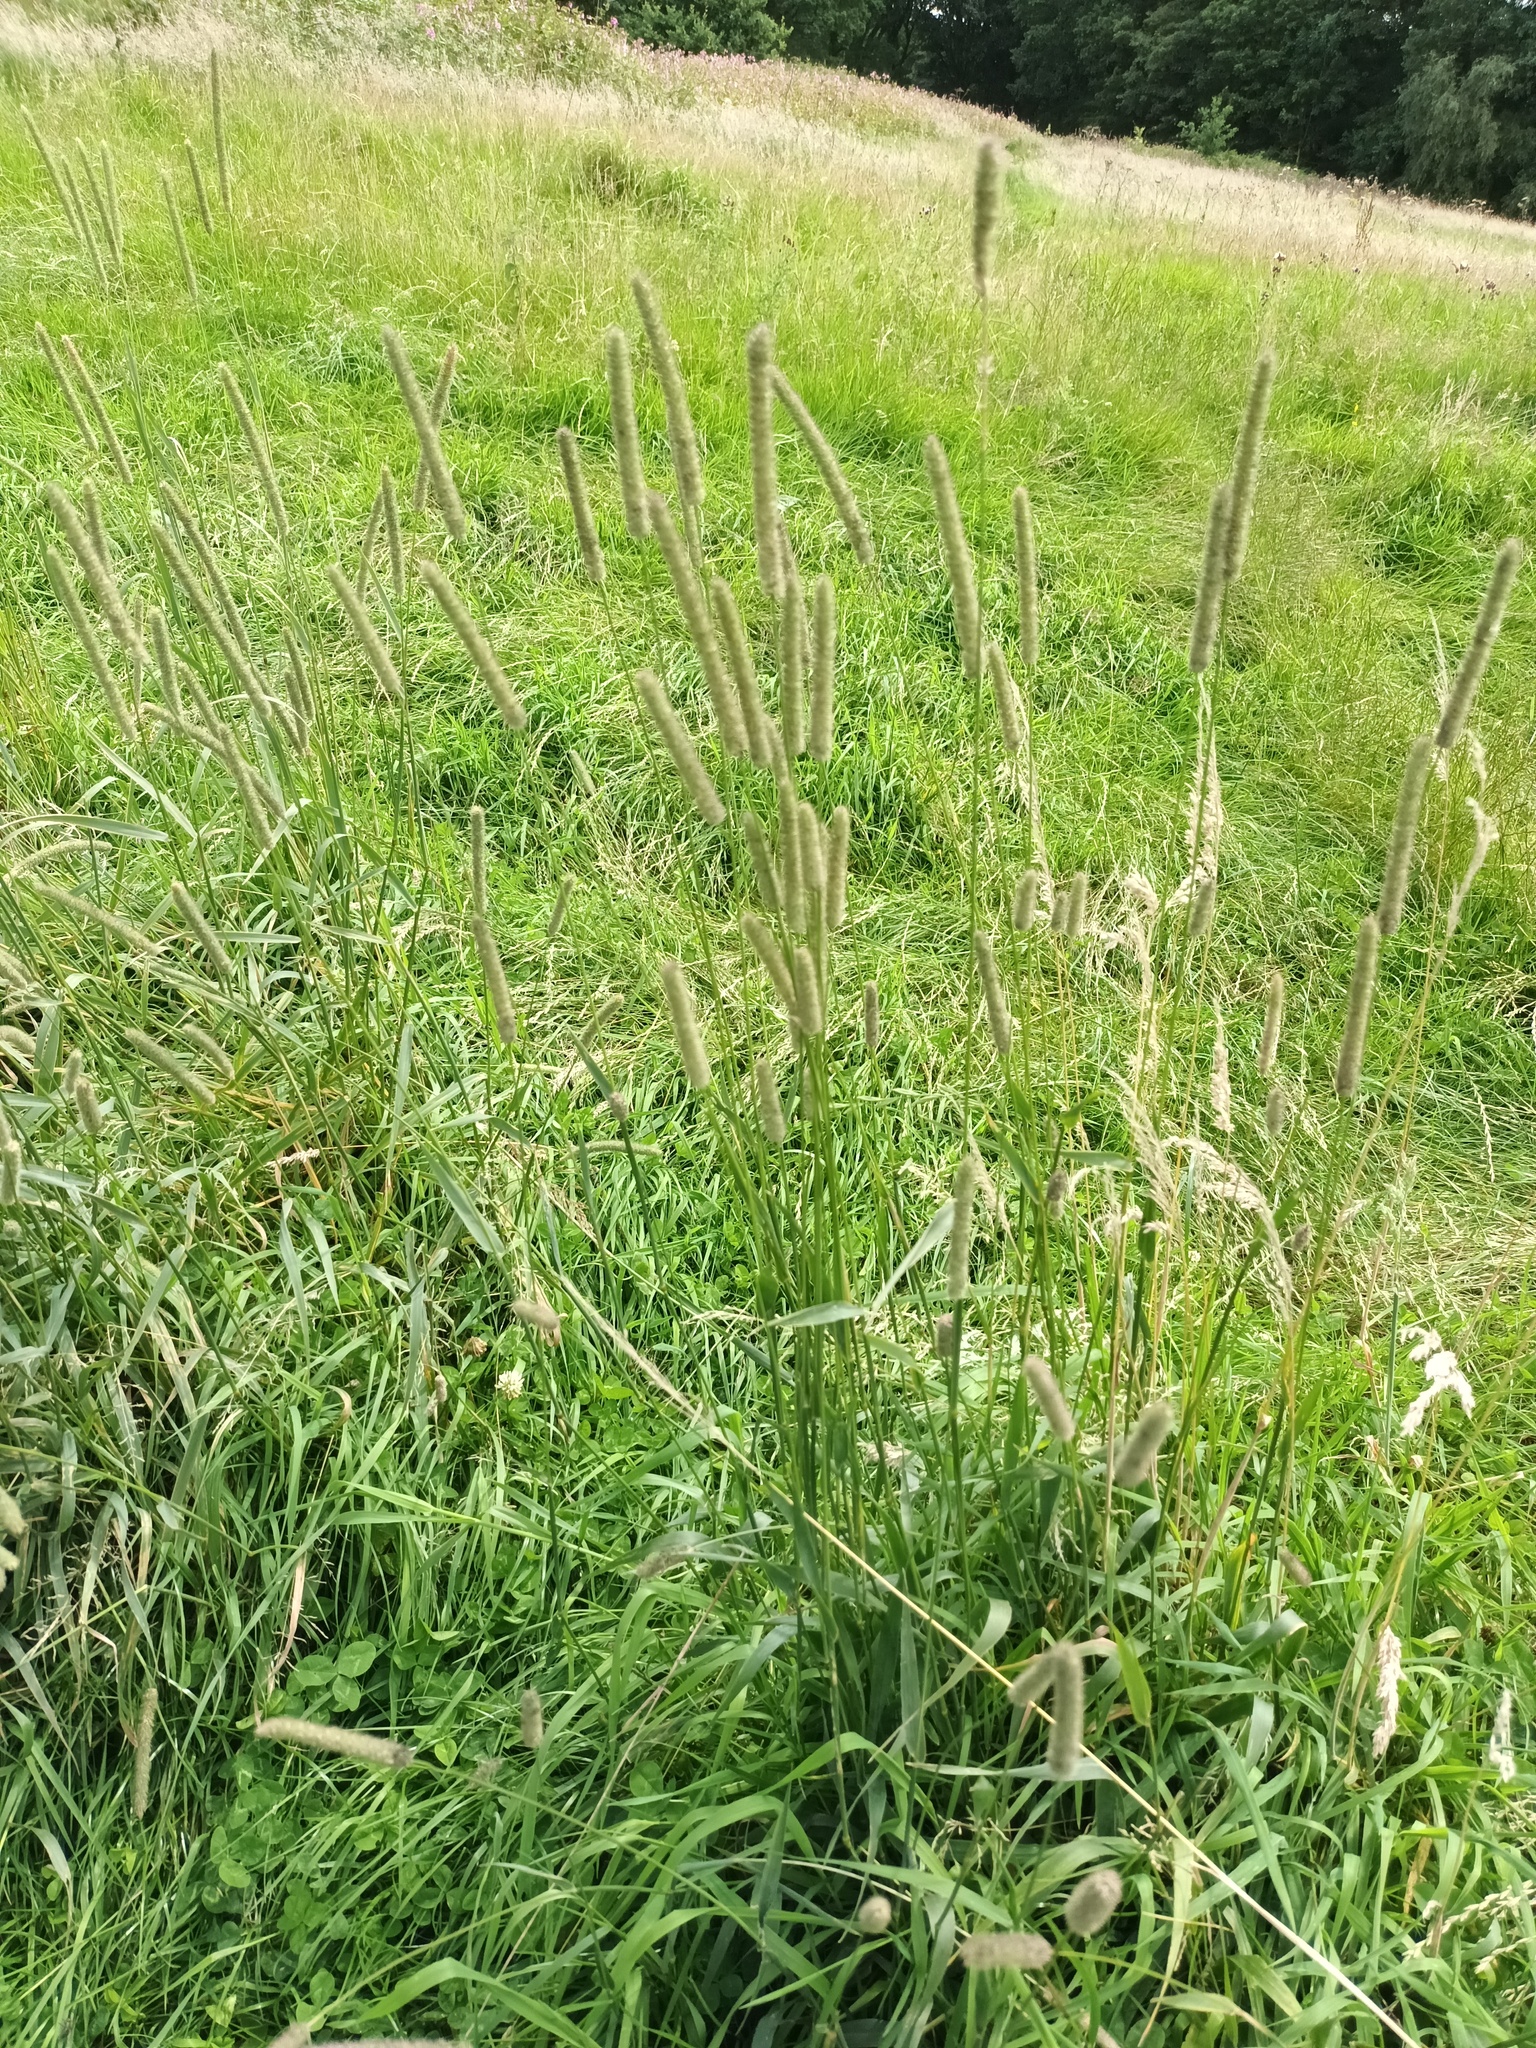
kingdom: Plantae
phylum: Tracheophyta
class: Liliopsida
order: Poales
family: Poaceae
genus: Phleum
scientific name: Phleum pratense
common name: Timothy grass
